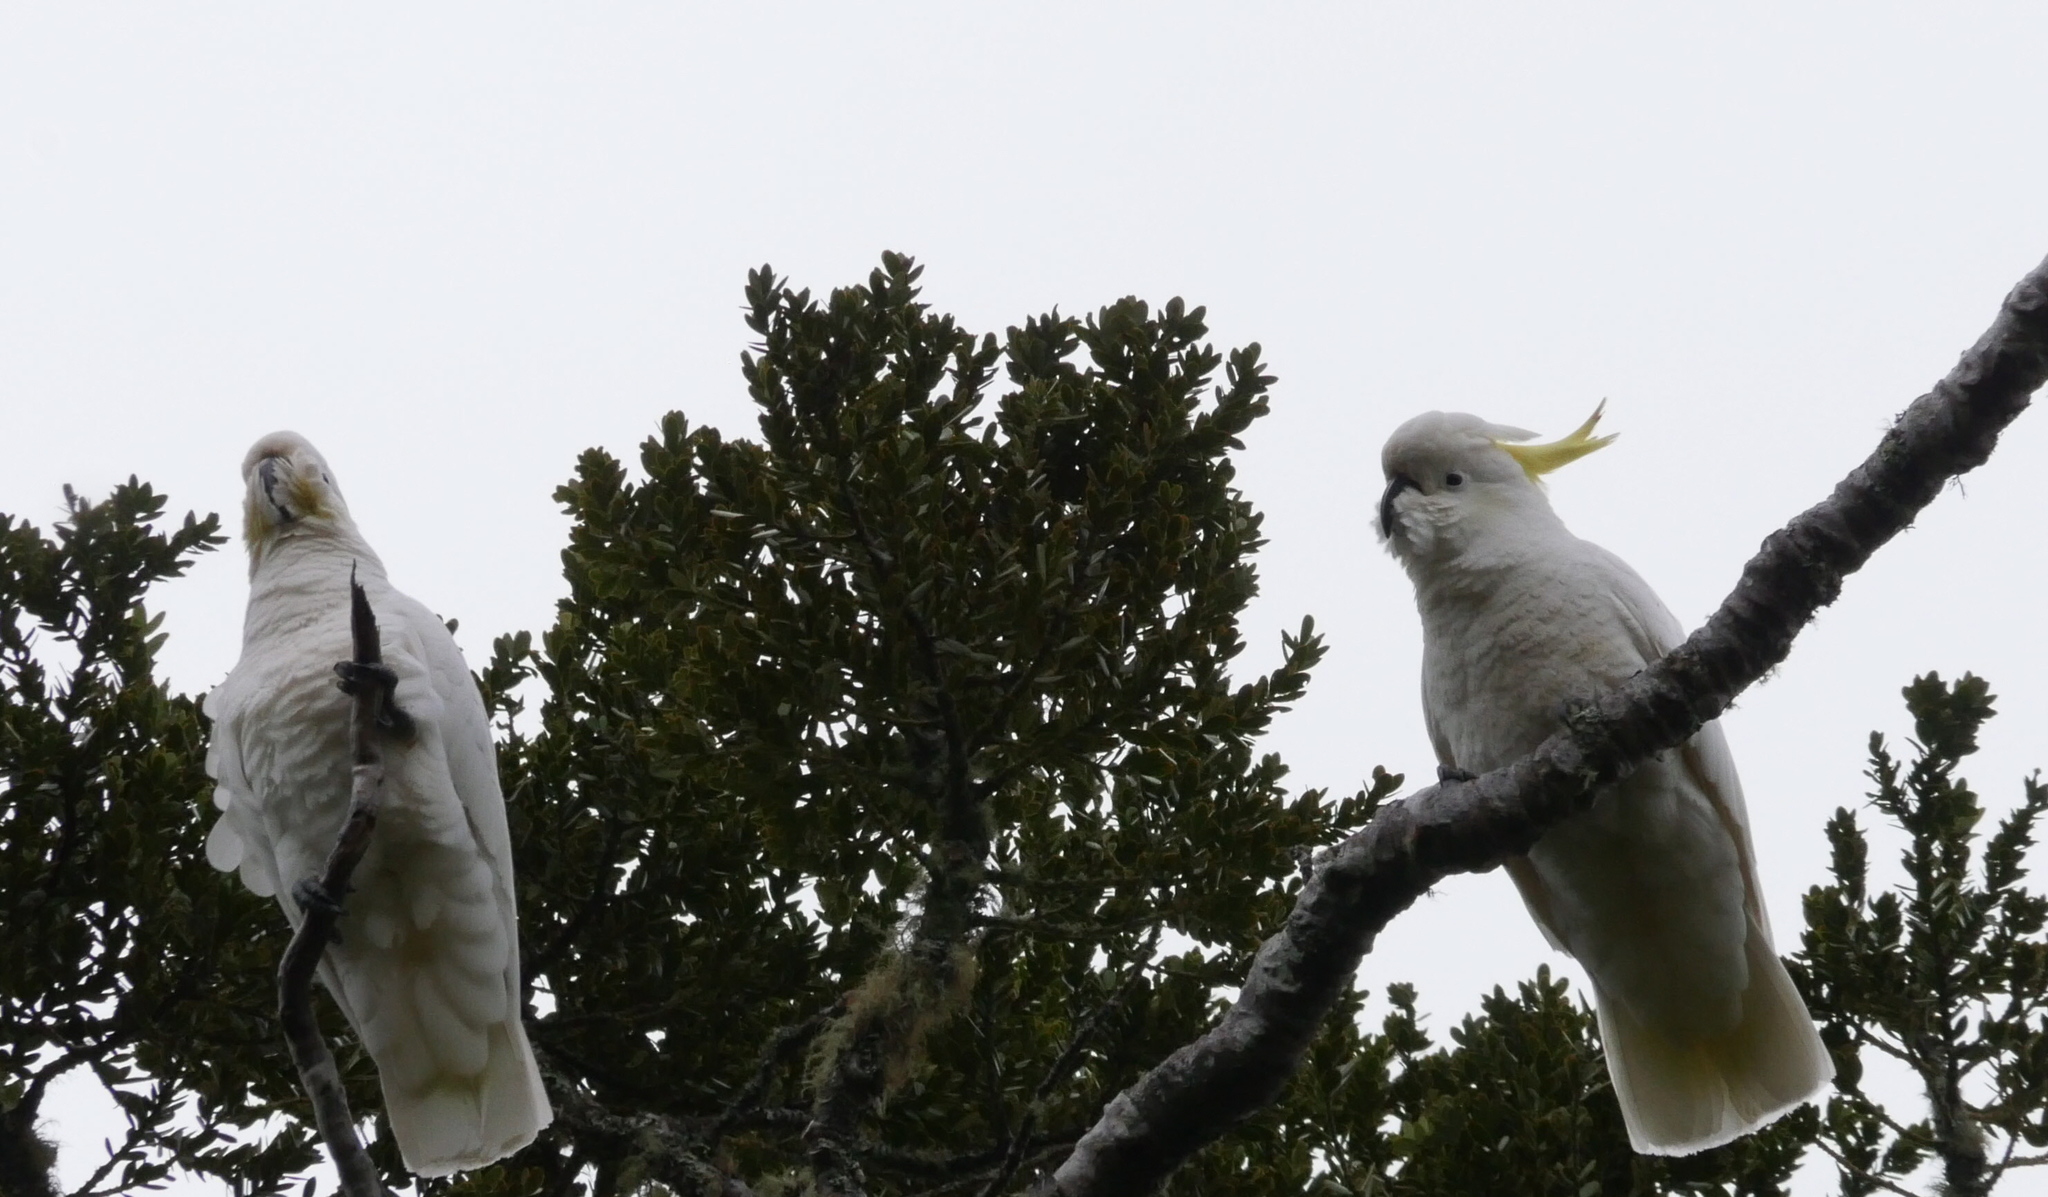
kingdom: Animalia
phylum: Chordata
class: Aves
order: Psittaciformes
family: Psittacidae
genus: Cacatua
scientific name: Cacatua galerita
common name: Sulphur-crested cockatoo
